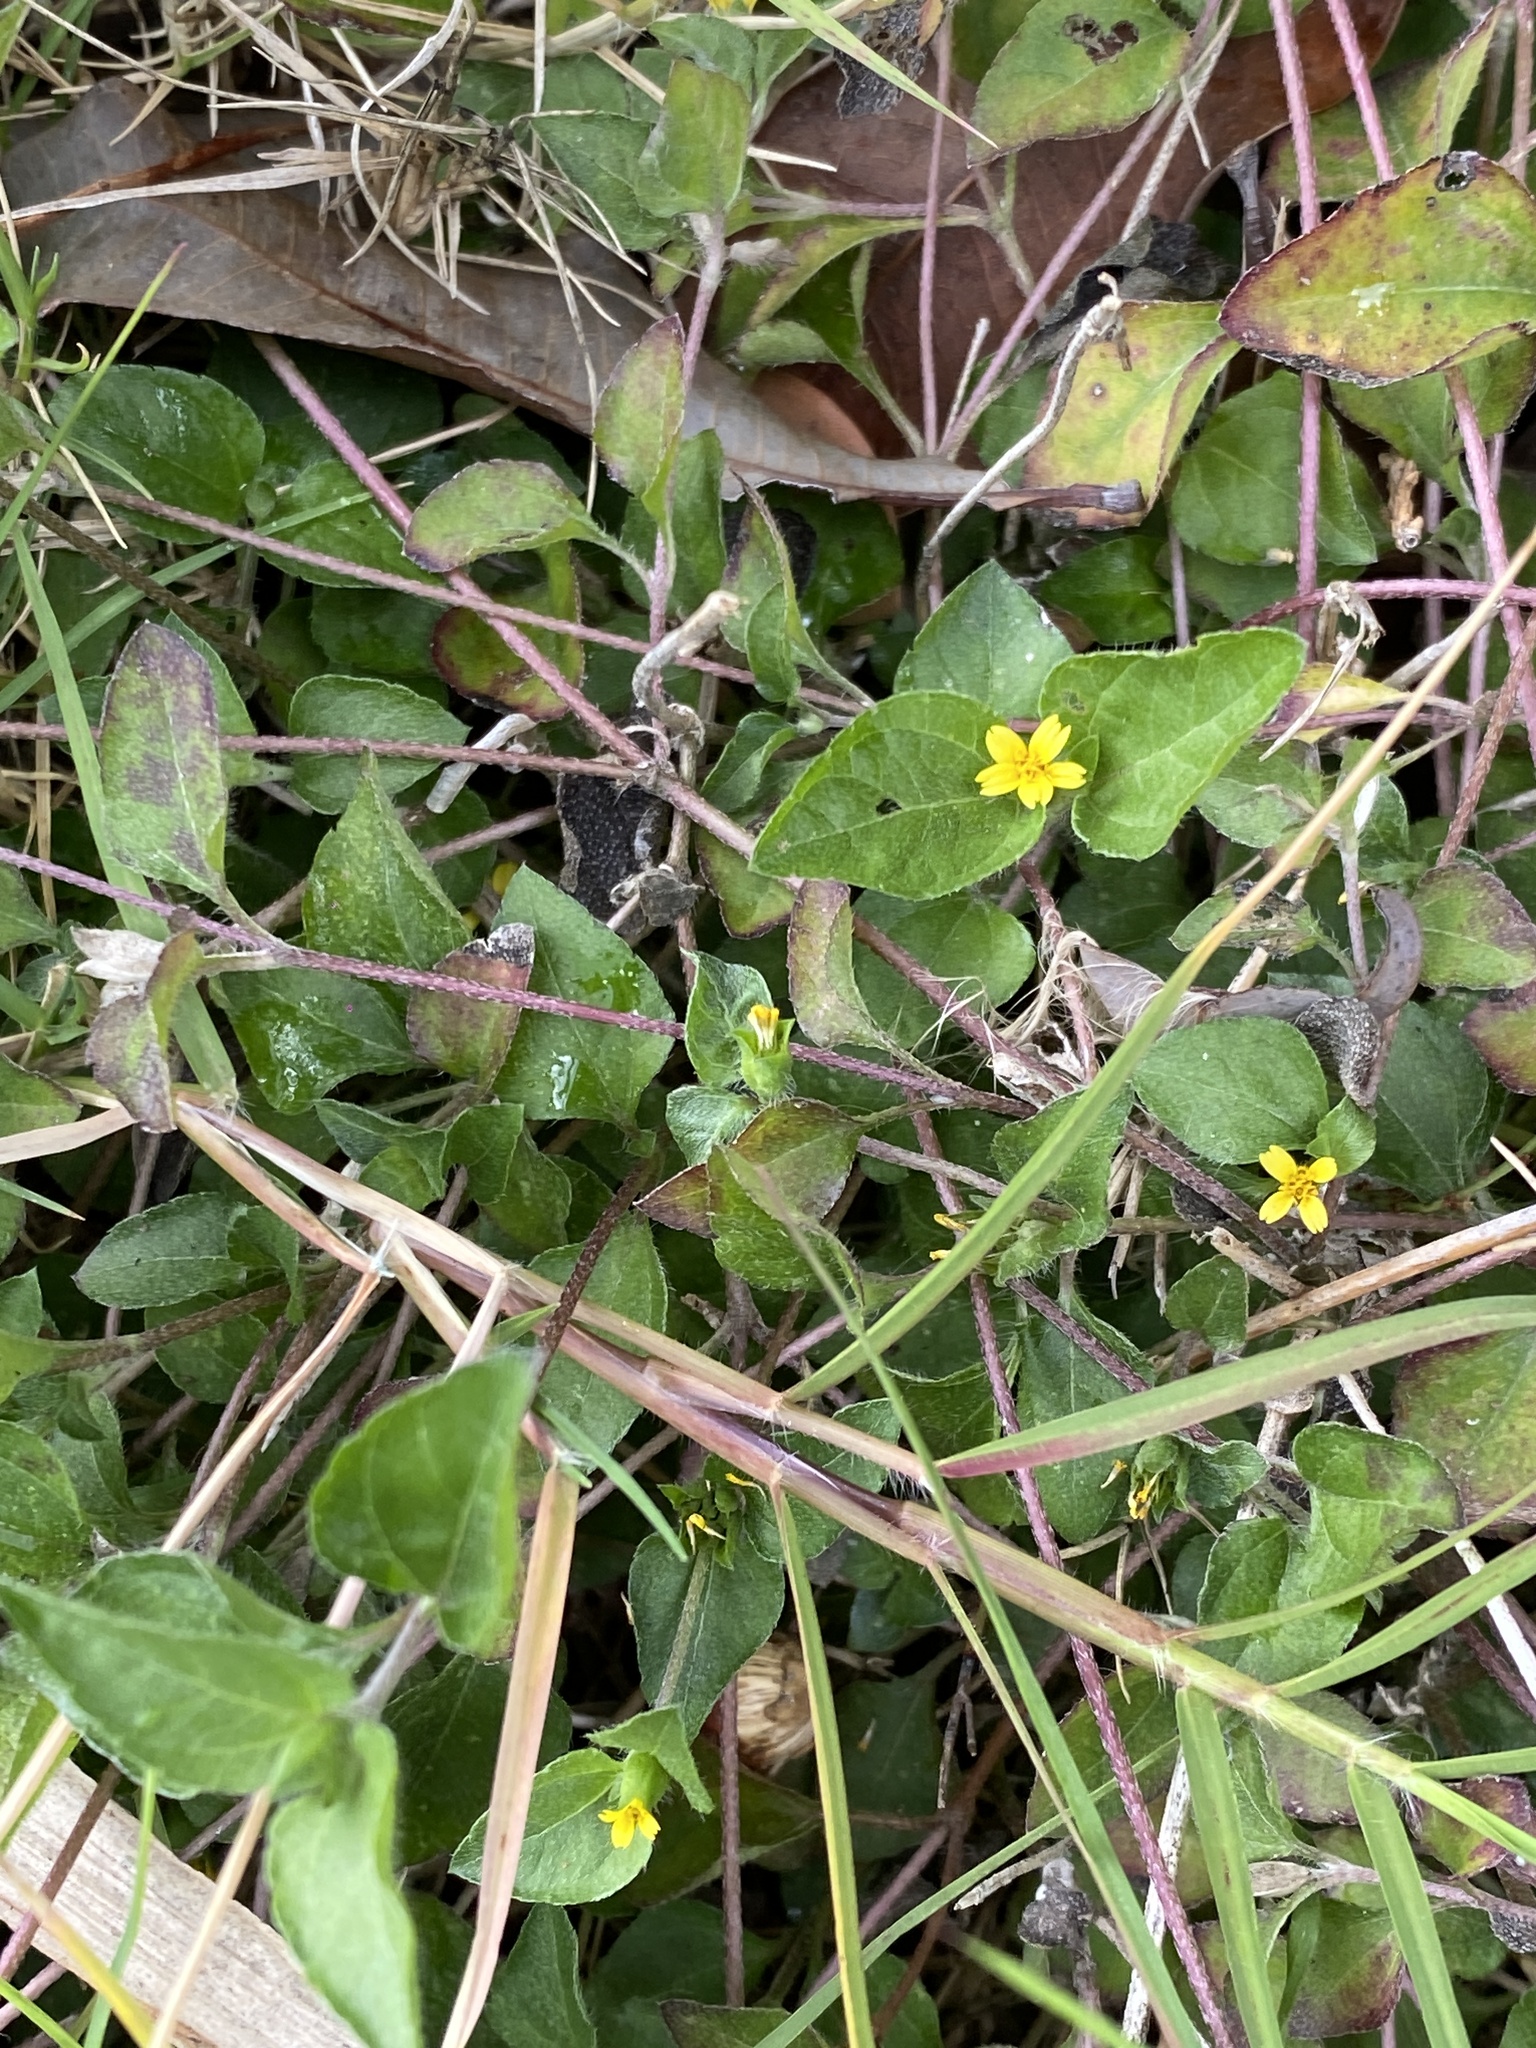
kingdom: Plantae
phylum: Tracheophyta
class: Magnoliopsida
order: Asterales
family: Asteraceae
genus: Calyptocarpus
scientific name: Calyptocarpus vialis
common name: Straggler daisy
